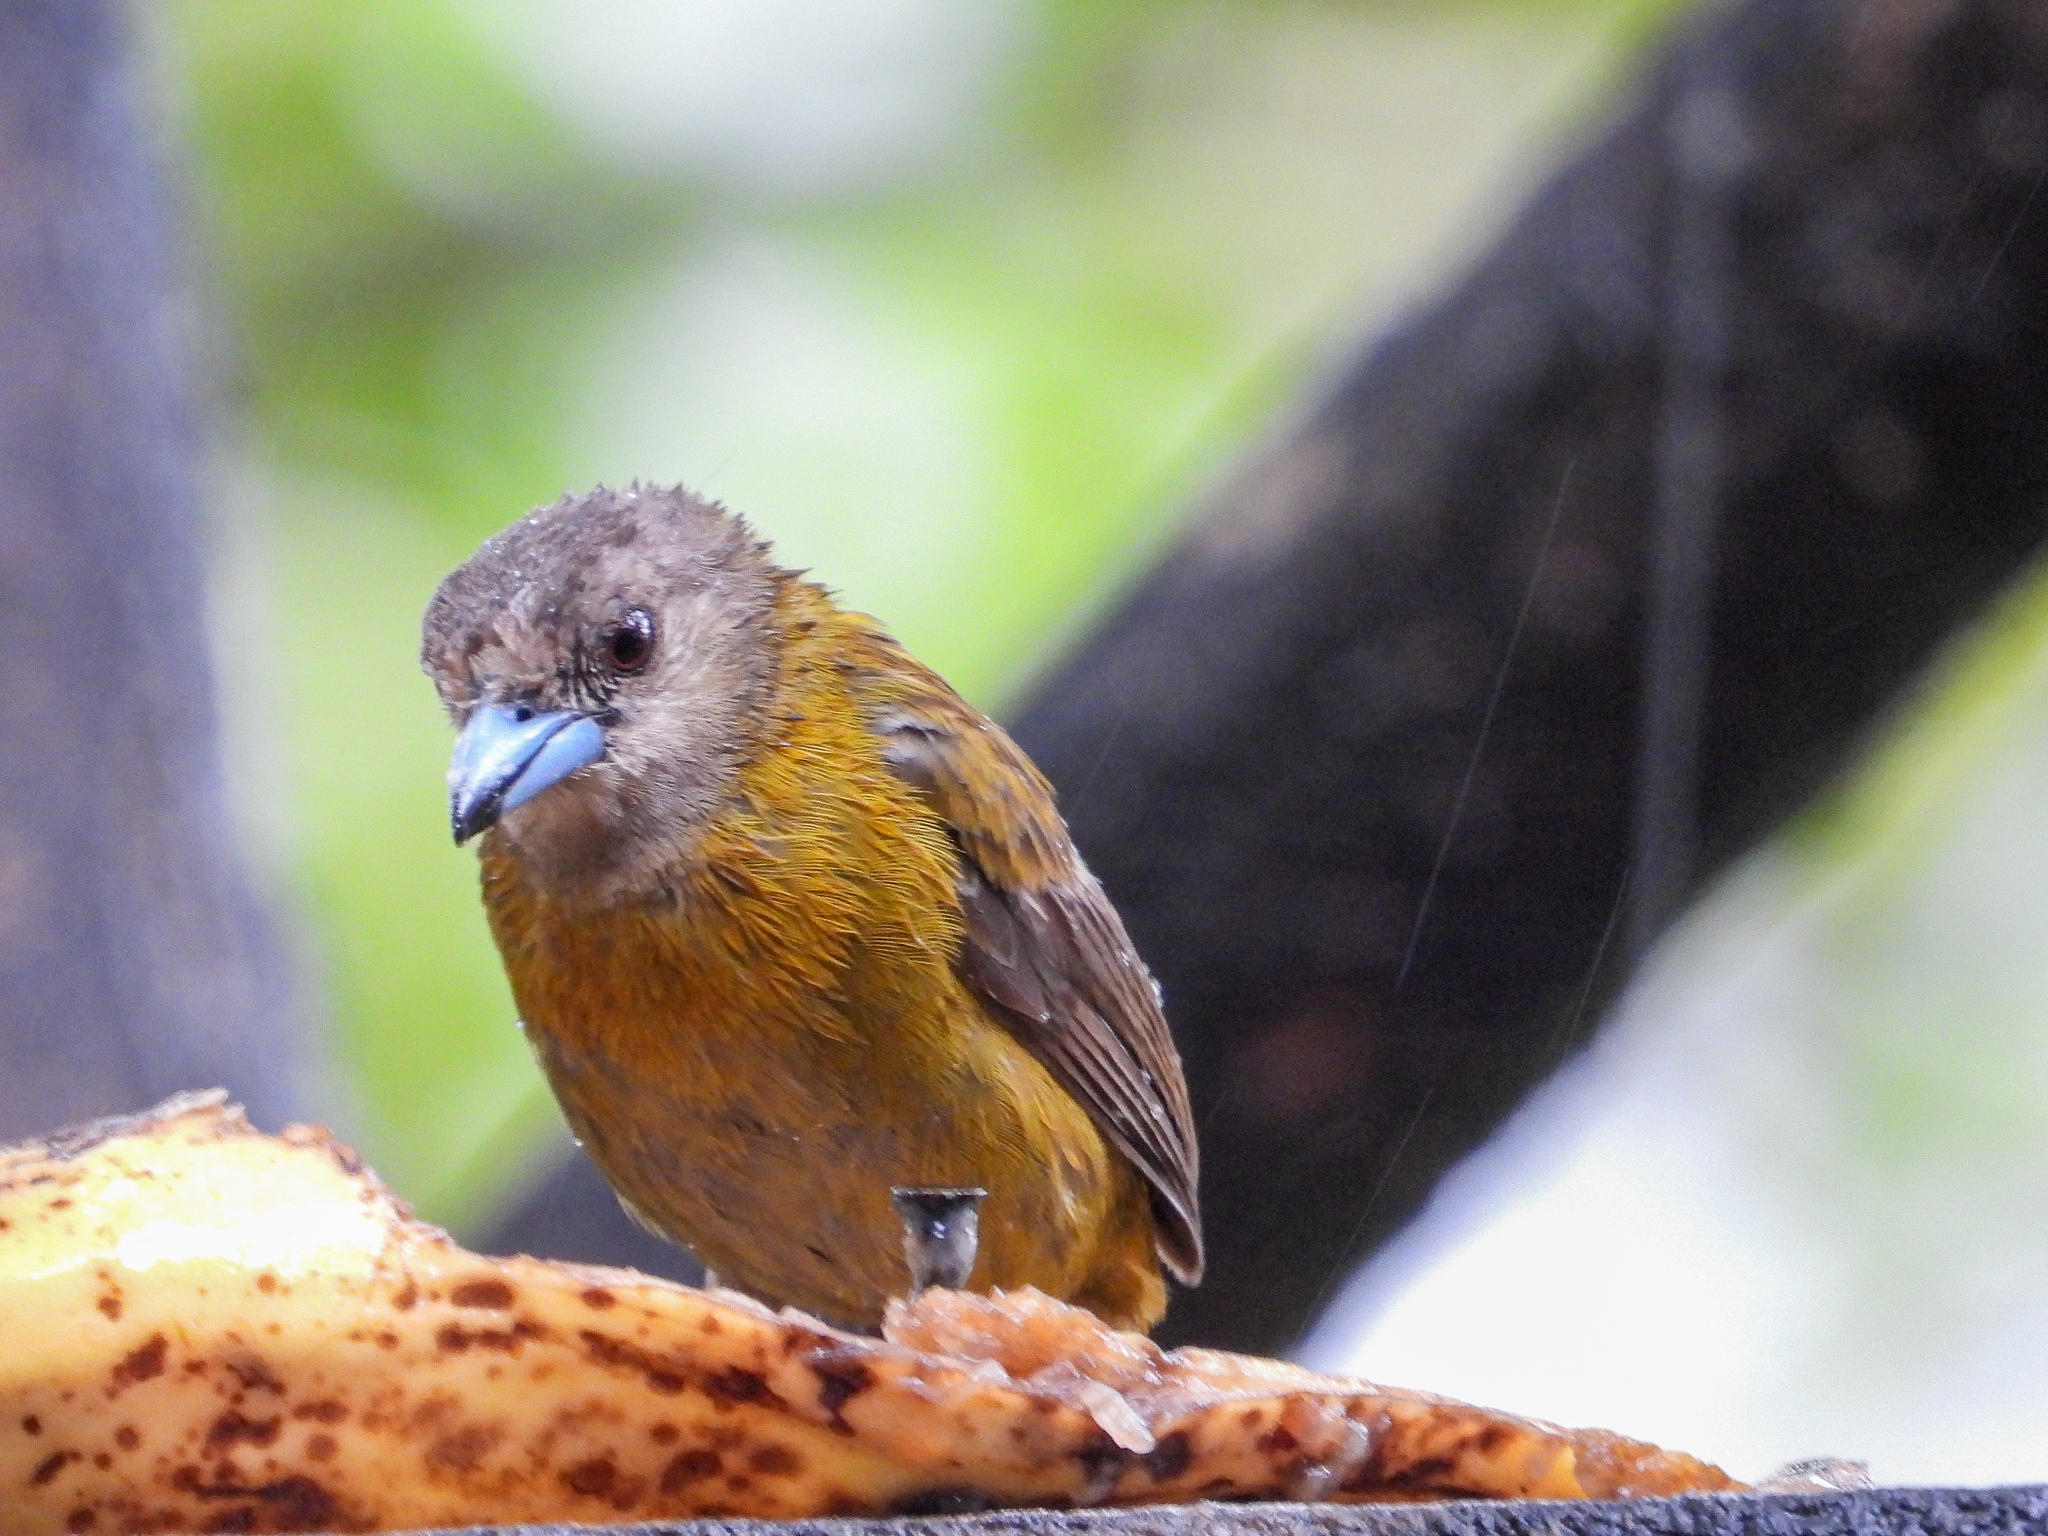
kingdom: Animalia
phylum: Chordata
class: Aves
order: Passeriformes
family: Thraupidae
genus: Ramphocelus
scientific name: Ramphocelus passerinii
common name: Passerini's tanager
